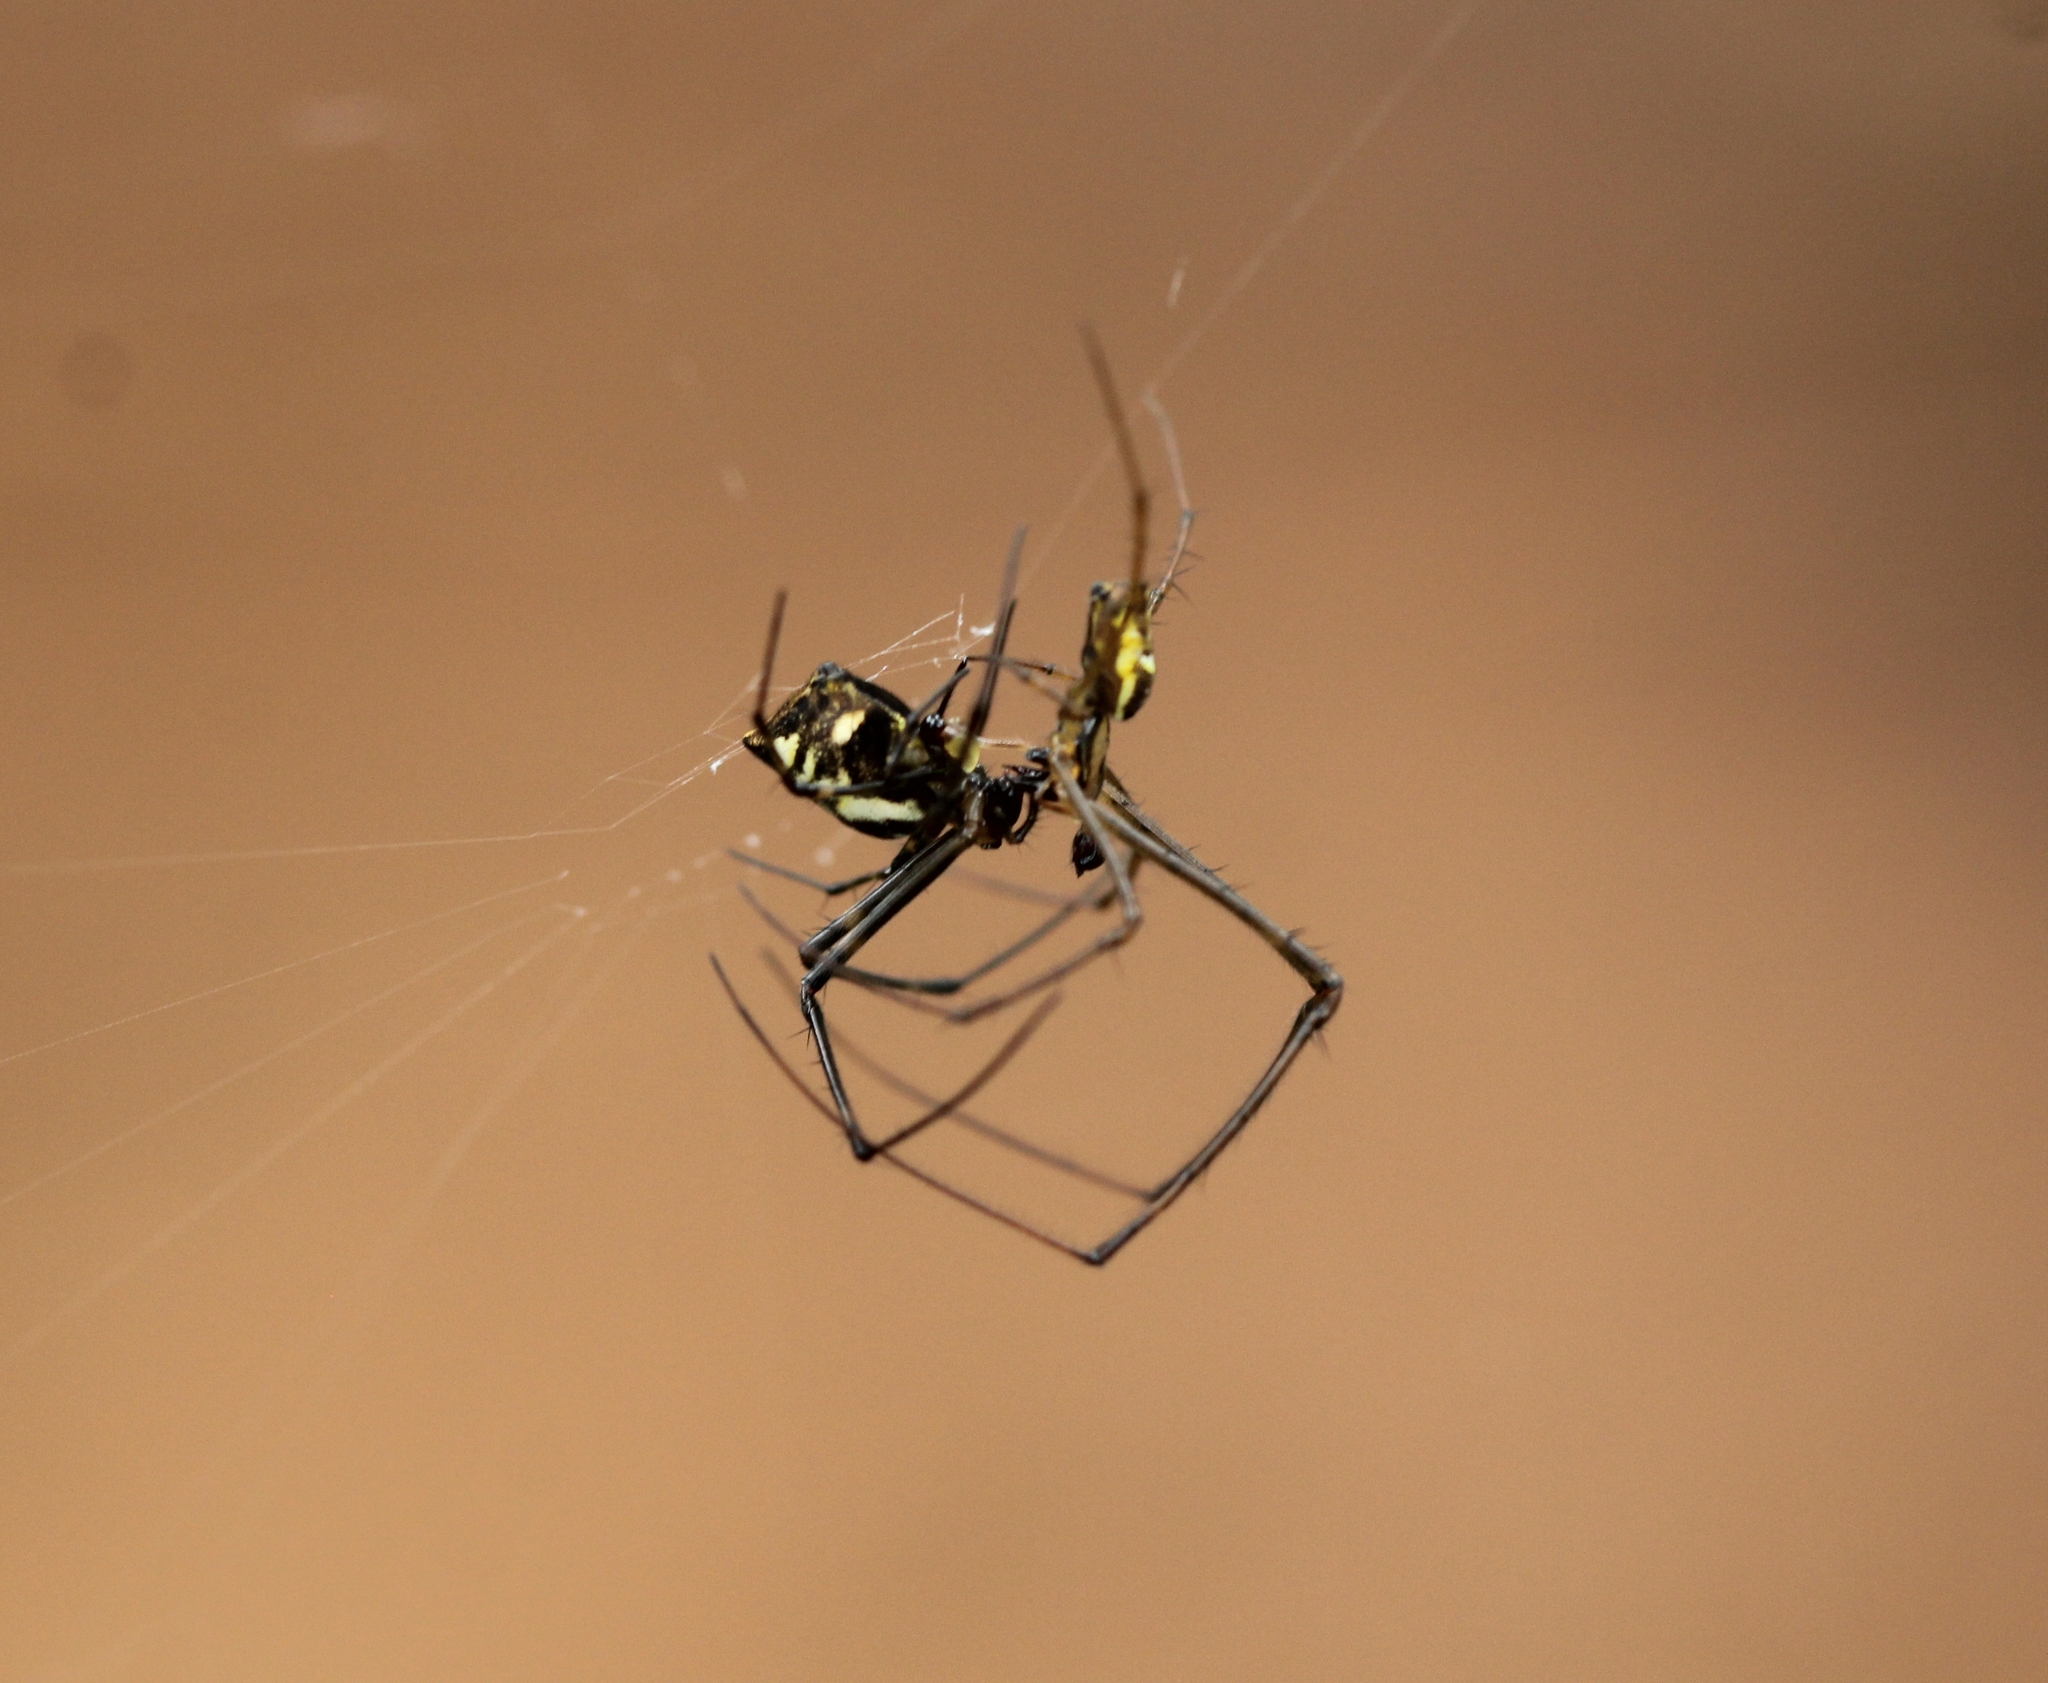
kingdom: Animalia
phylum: Arthropoda
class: Arachnida
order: Araneae
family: Tetragnathidae
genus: Tylorida
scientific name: Tylorida ventralis
